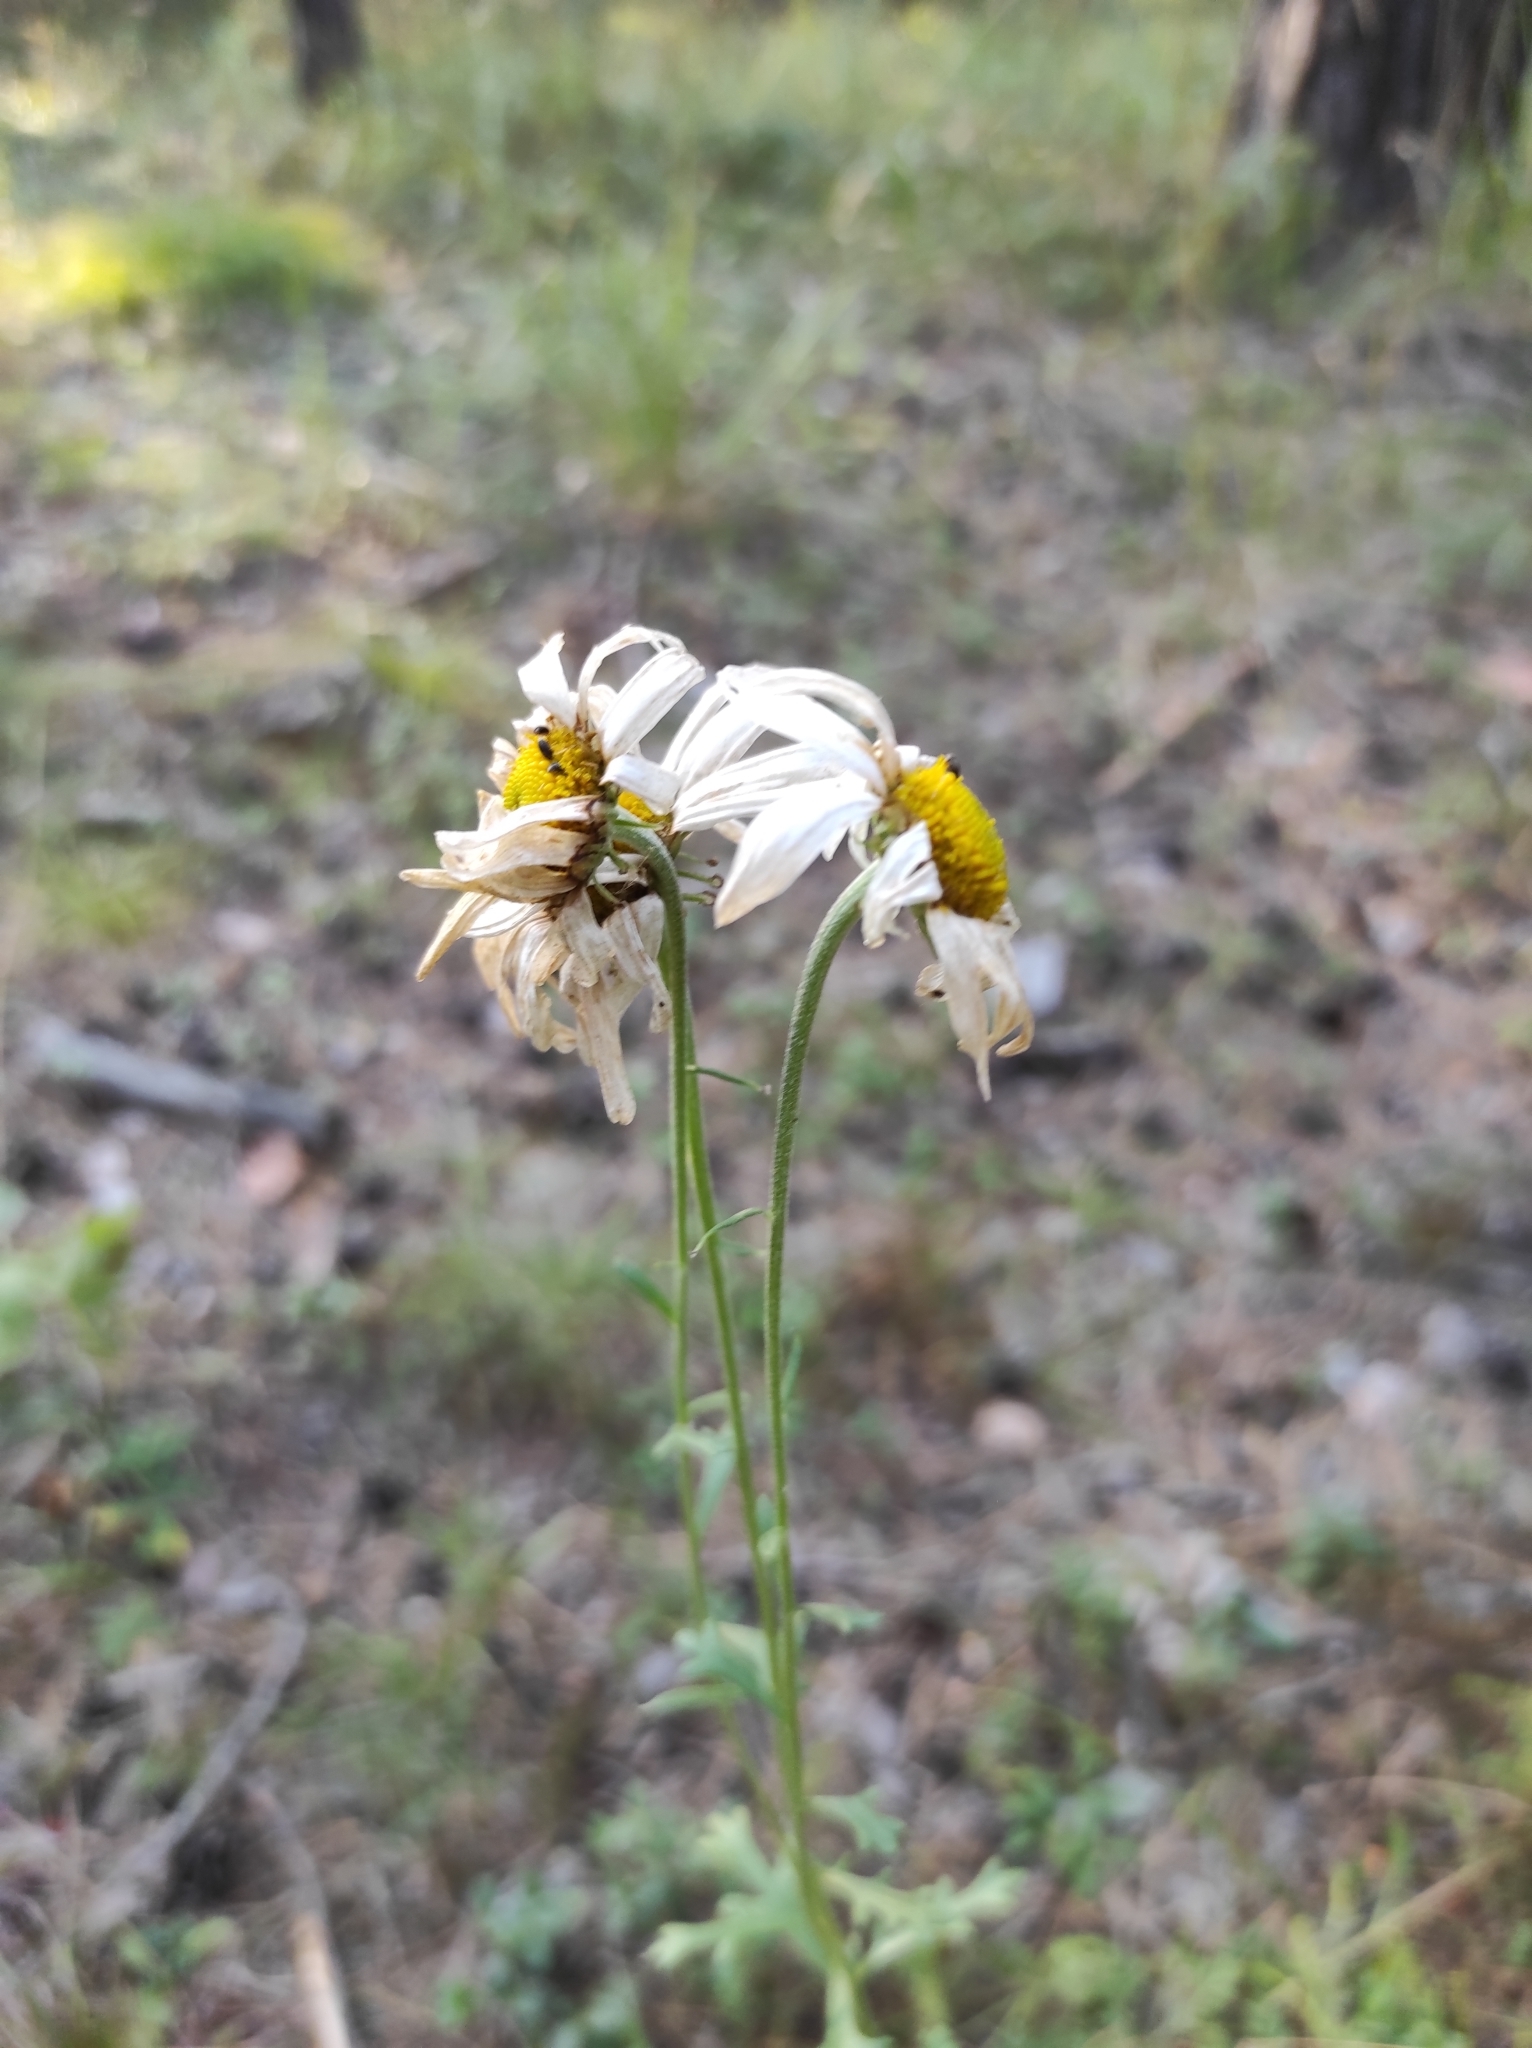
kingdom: Plantae
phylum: Tracheophyta
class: Magnoliopsida
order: Asterales
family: Asteraceae
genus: Chrysanthemum
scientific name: Chrysanthemum zawadzkii
